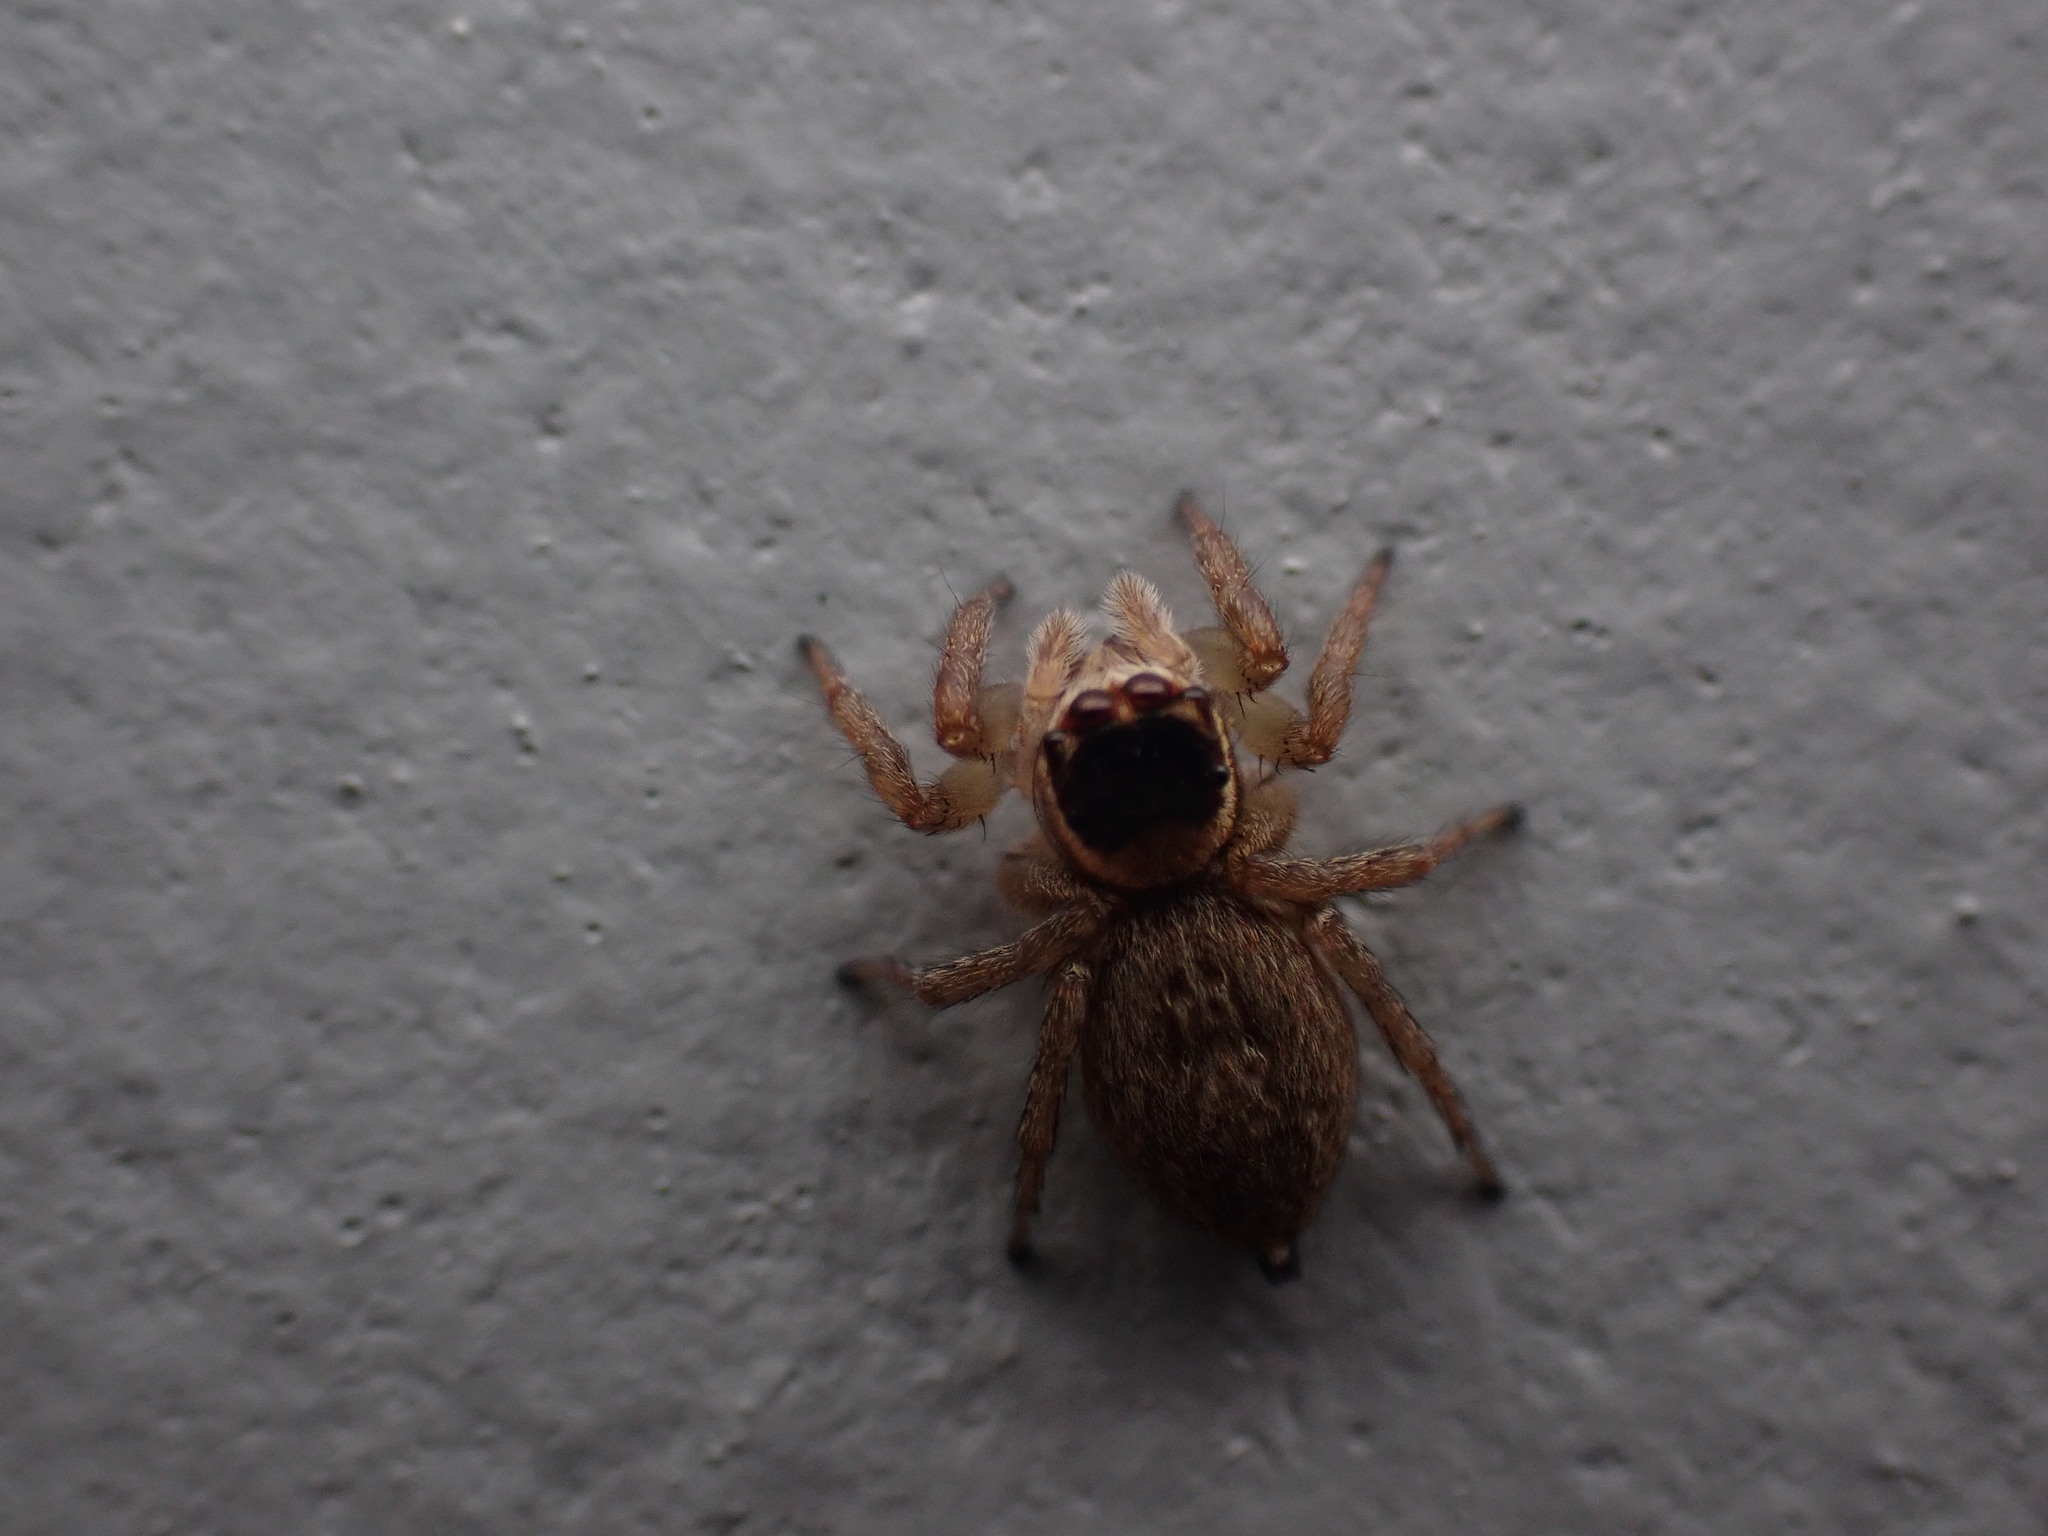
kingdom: Animalia
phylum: Arthropoda
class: Arachnida
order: Araneae
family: Salticidae
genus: Maratus
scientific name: Maratus griseus
